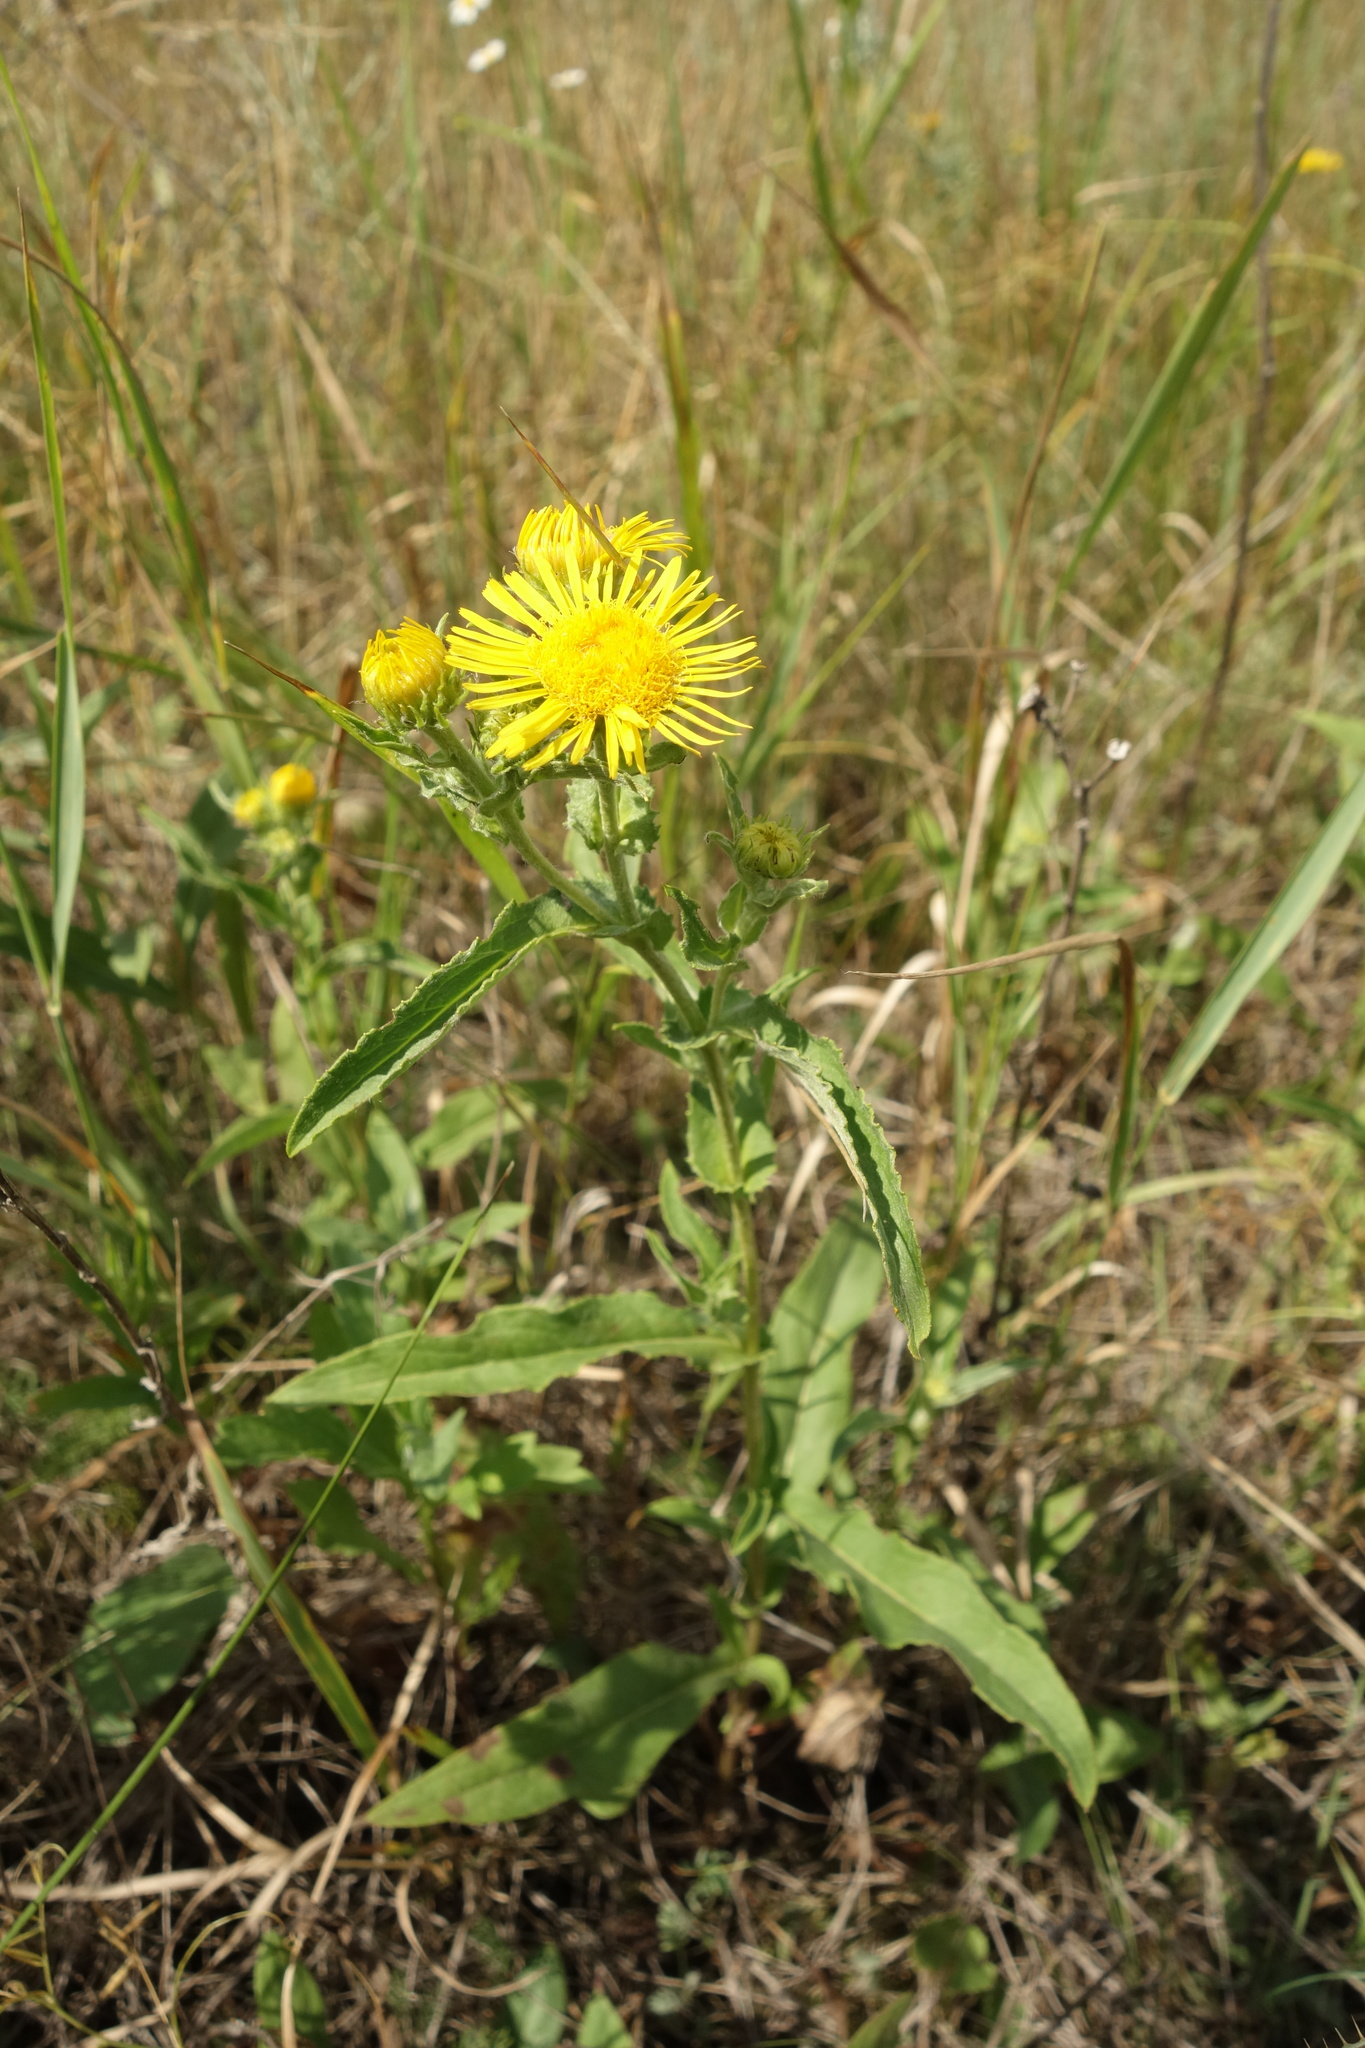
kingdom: Plantae
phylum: Tracheophyta
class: Magnoliopsida
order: Asterales
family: Asteraceae
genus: Pentanema
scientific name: Pentanema britannicum
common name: British elecampane
